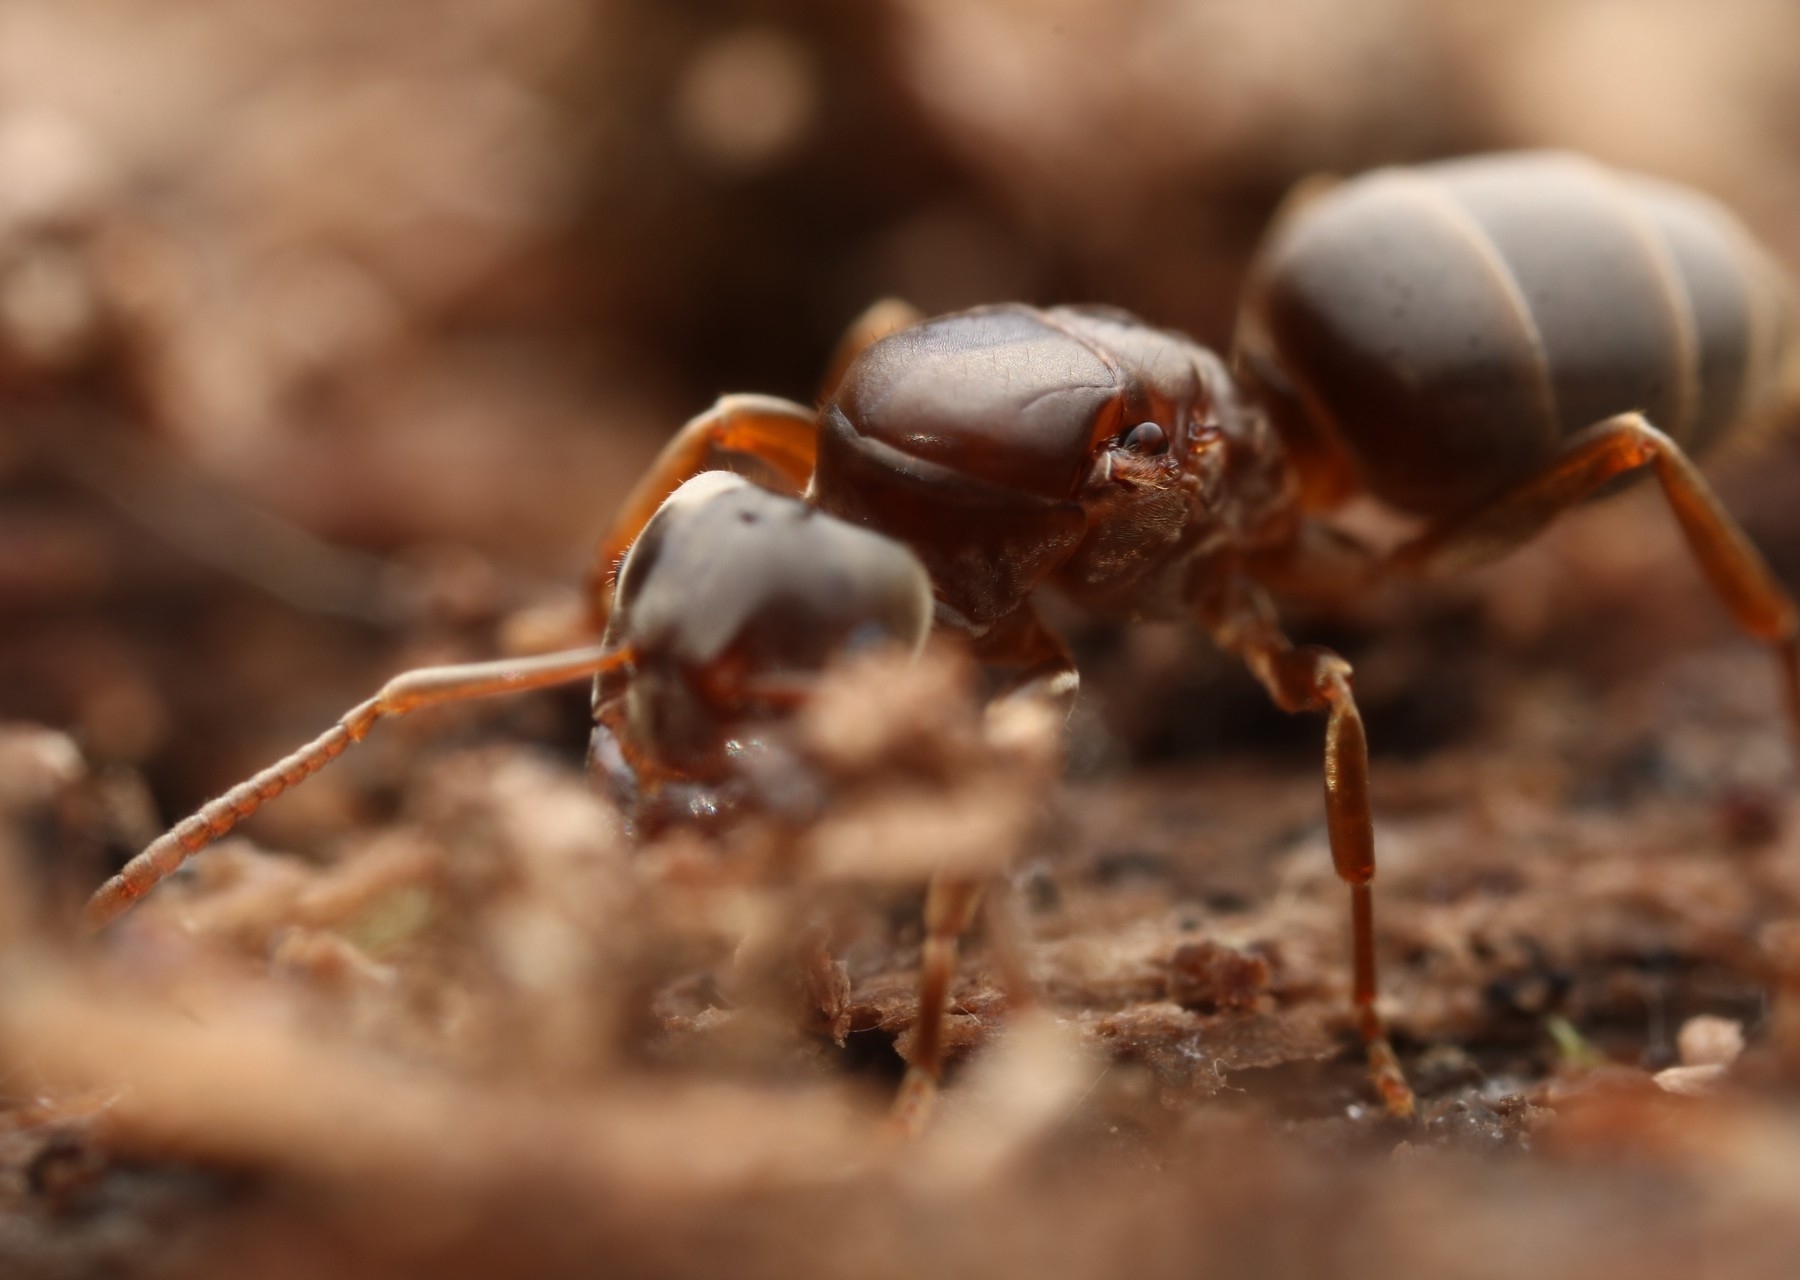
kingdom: Animalia
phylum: Arthropoda
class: Insecta
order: Hymenoptera
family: Formicidae
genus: Lasius
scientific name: Lasius aphidicola
